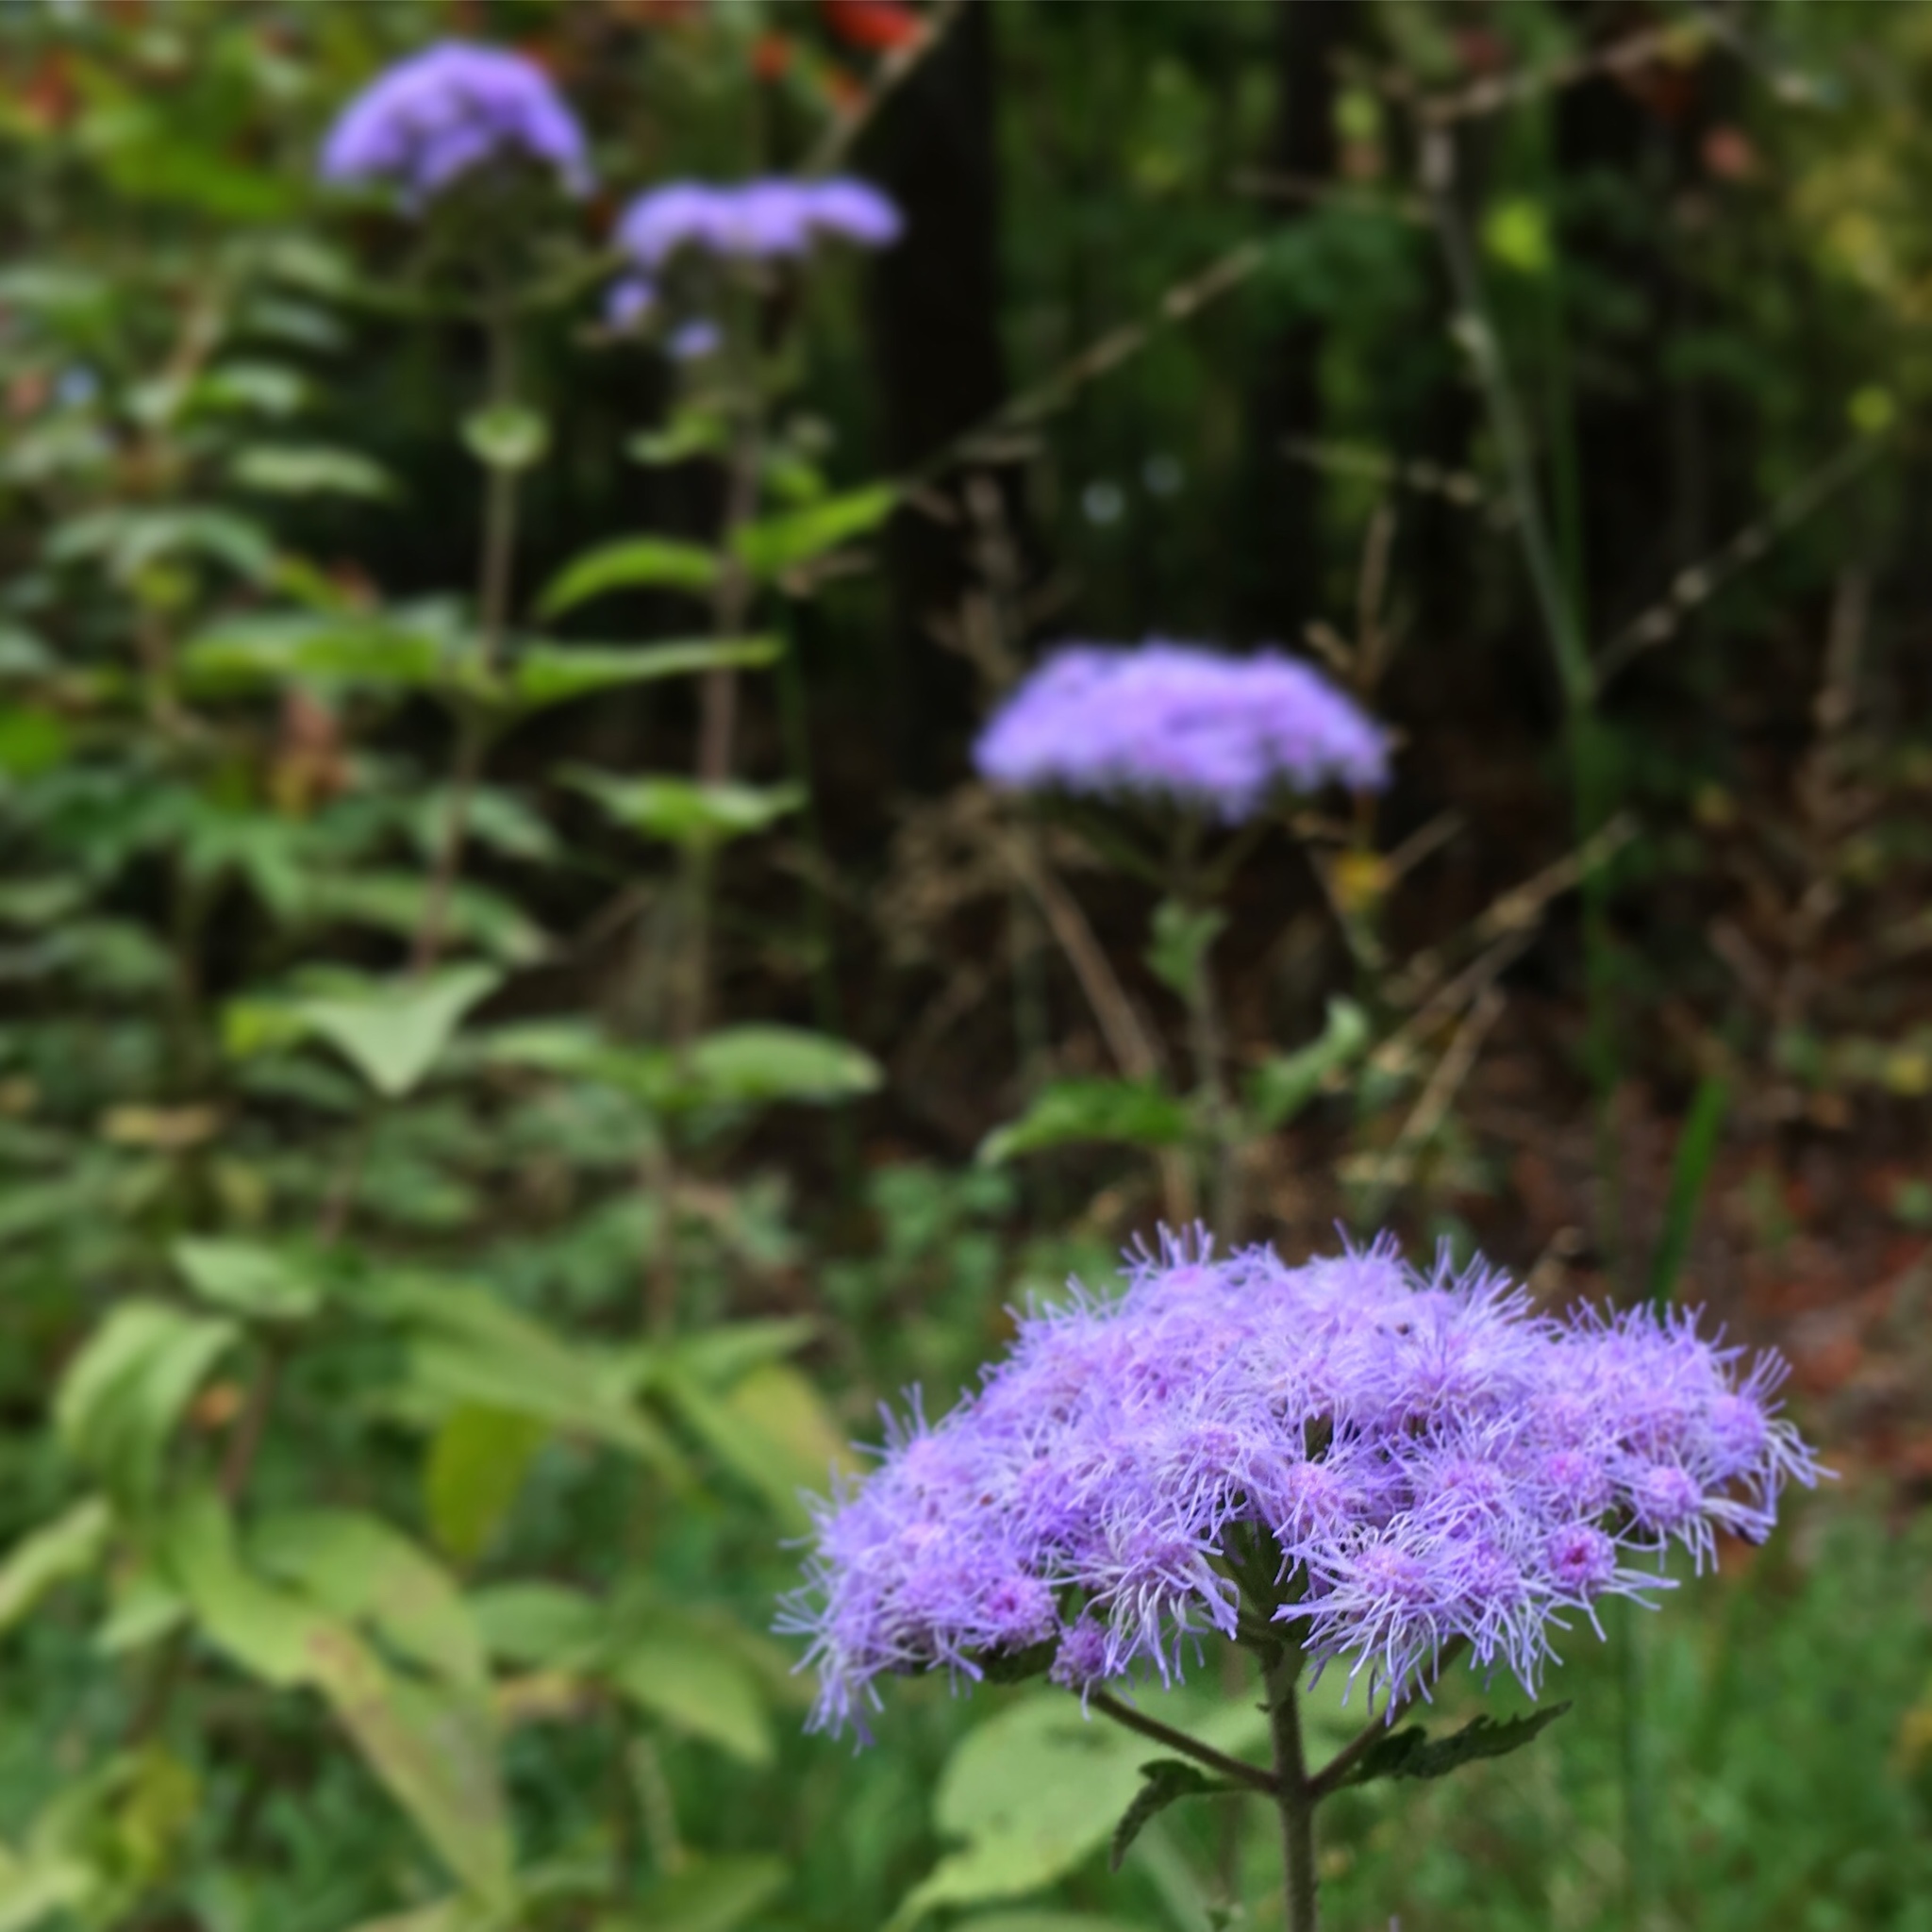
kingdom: Plantae
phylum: Tracheophyta
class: Magnoliopsida
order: Asterales
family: Asteraceae
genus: Conoclinium
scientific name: Conoclinium coelestinum
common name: Blue mistflower
